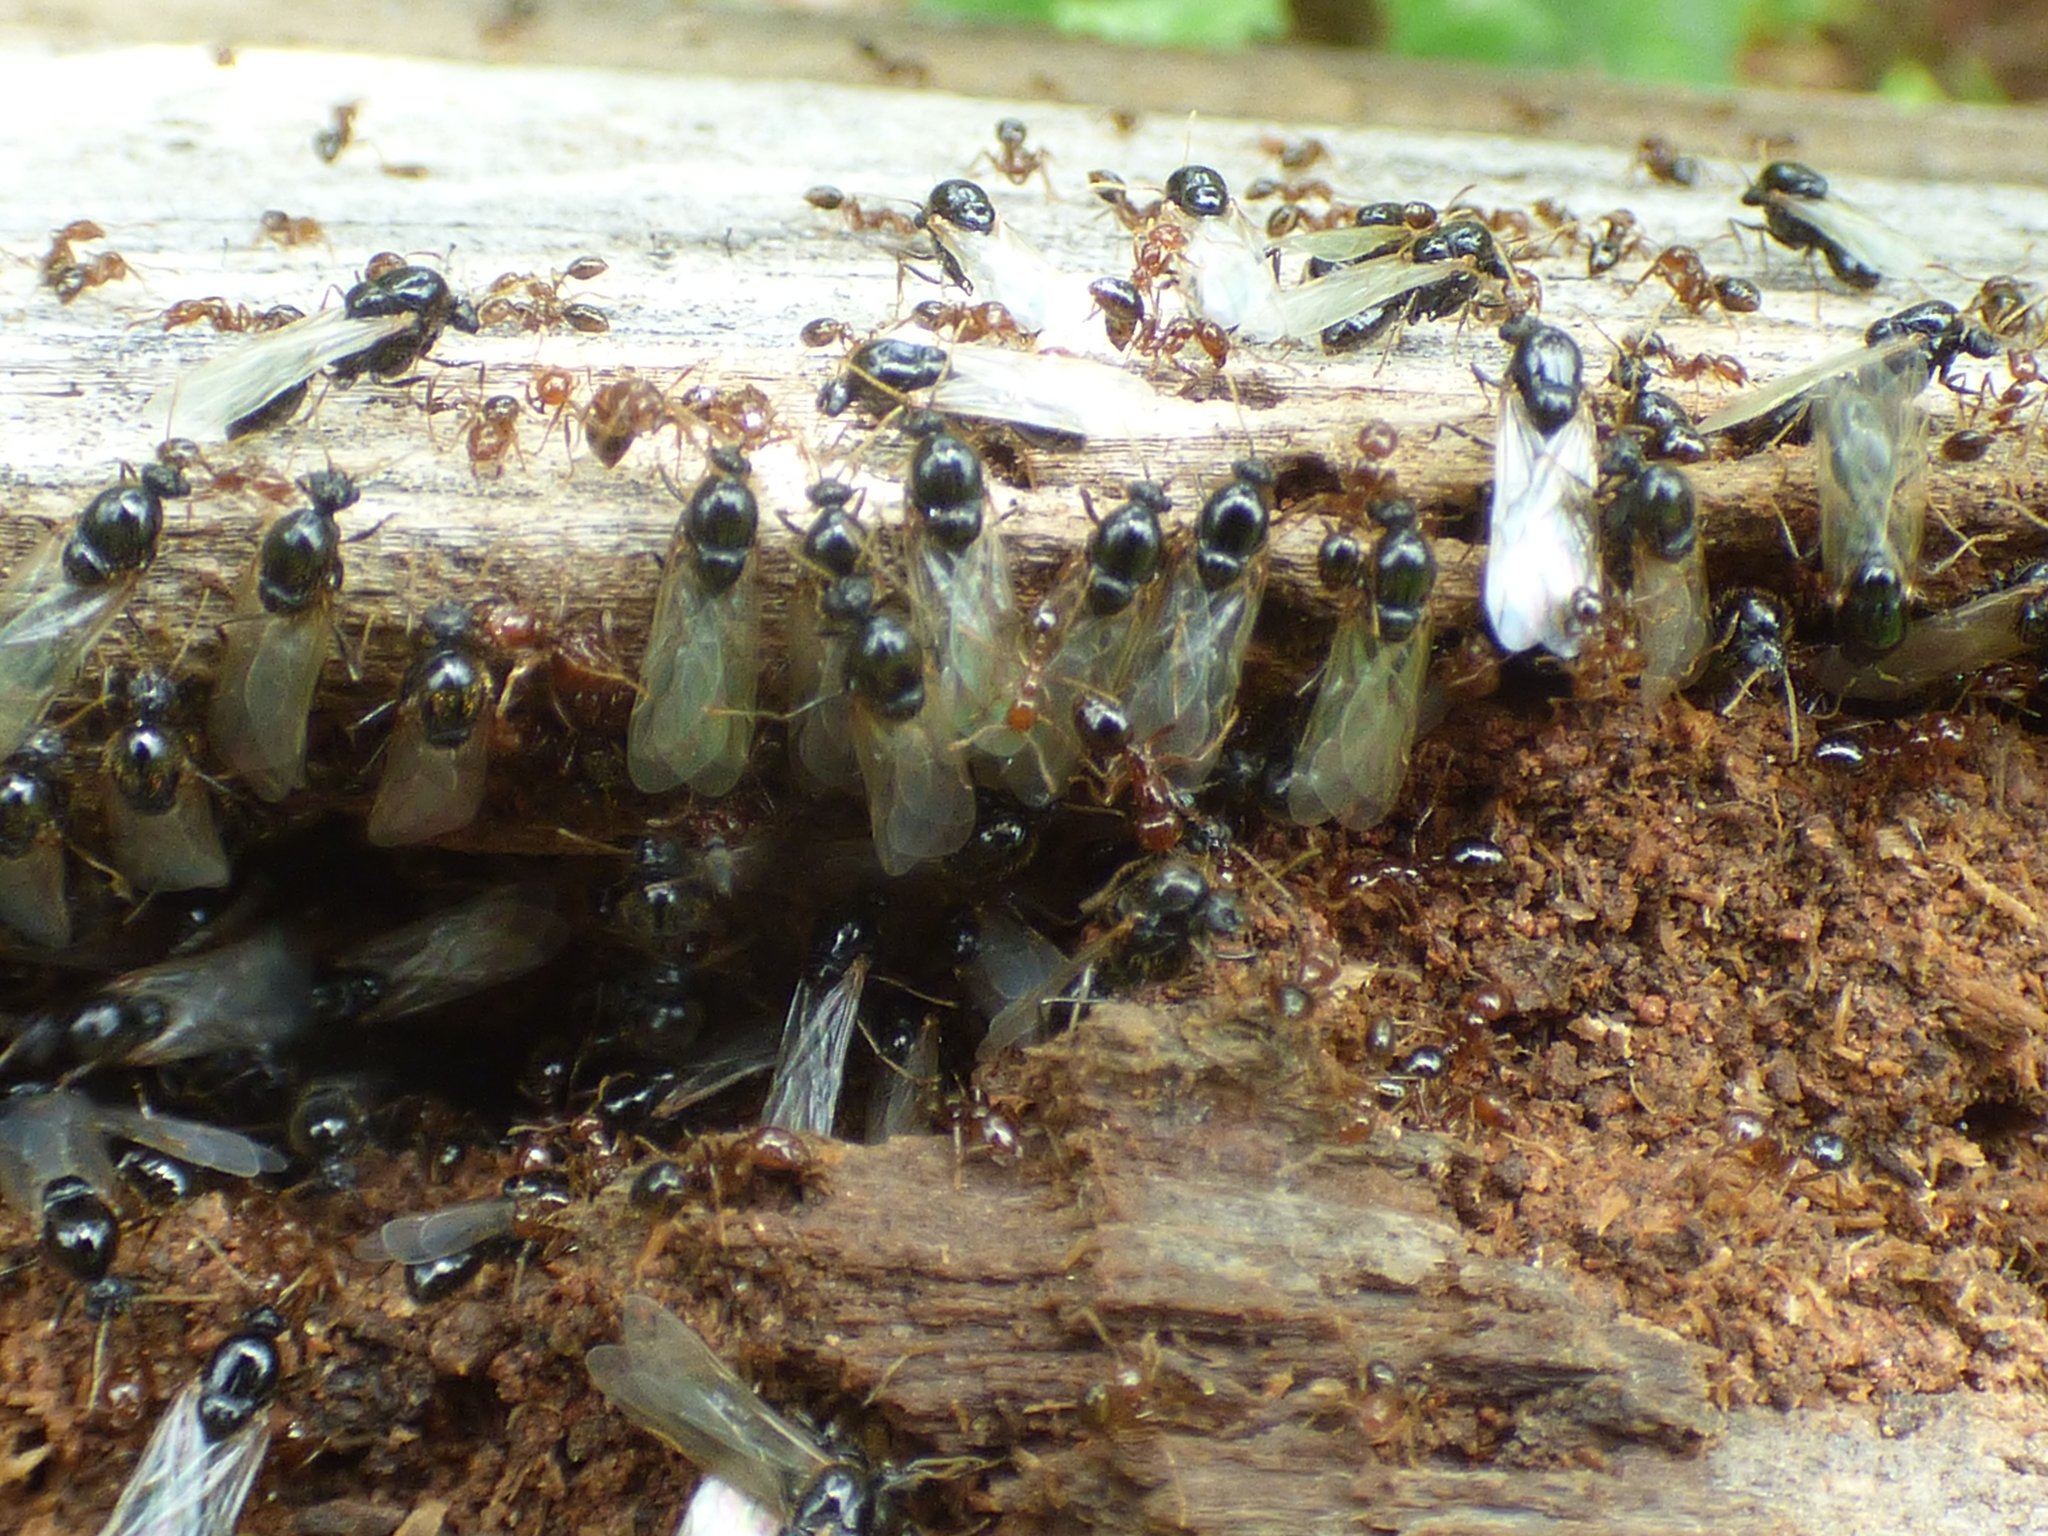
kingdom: Animalia
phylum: Arthropoda
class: Insecta
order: Hymenoptera
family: Formicidae
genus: Solenopsis
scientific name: Solenopsis invicta
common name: Red imported fire ant
